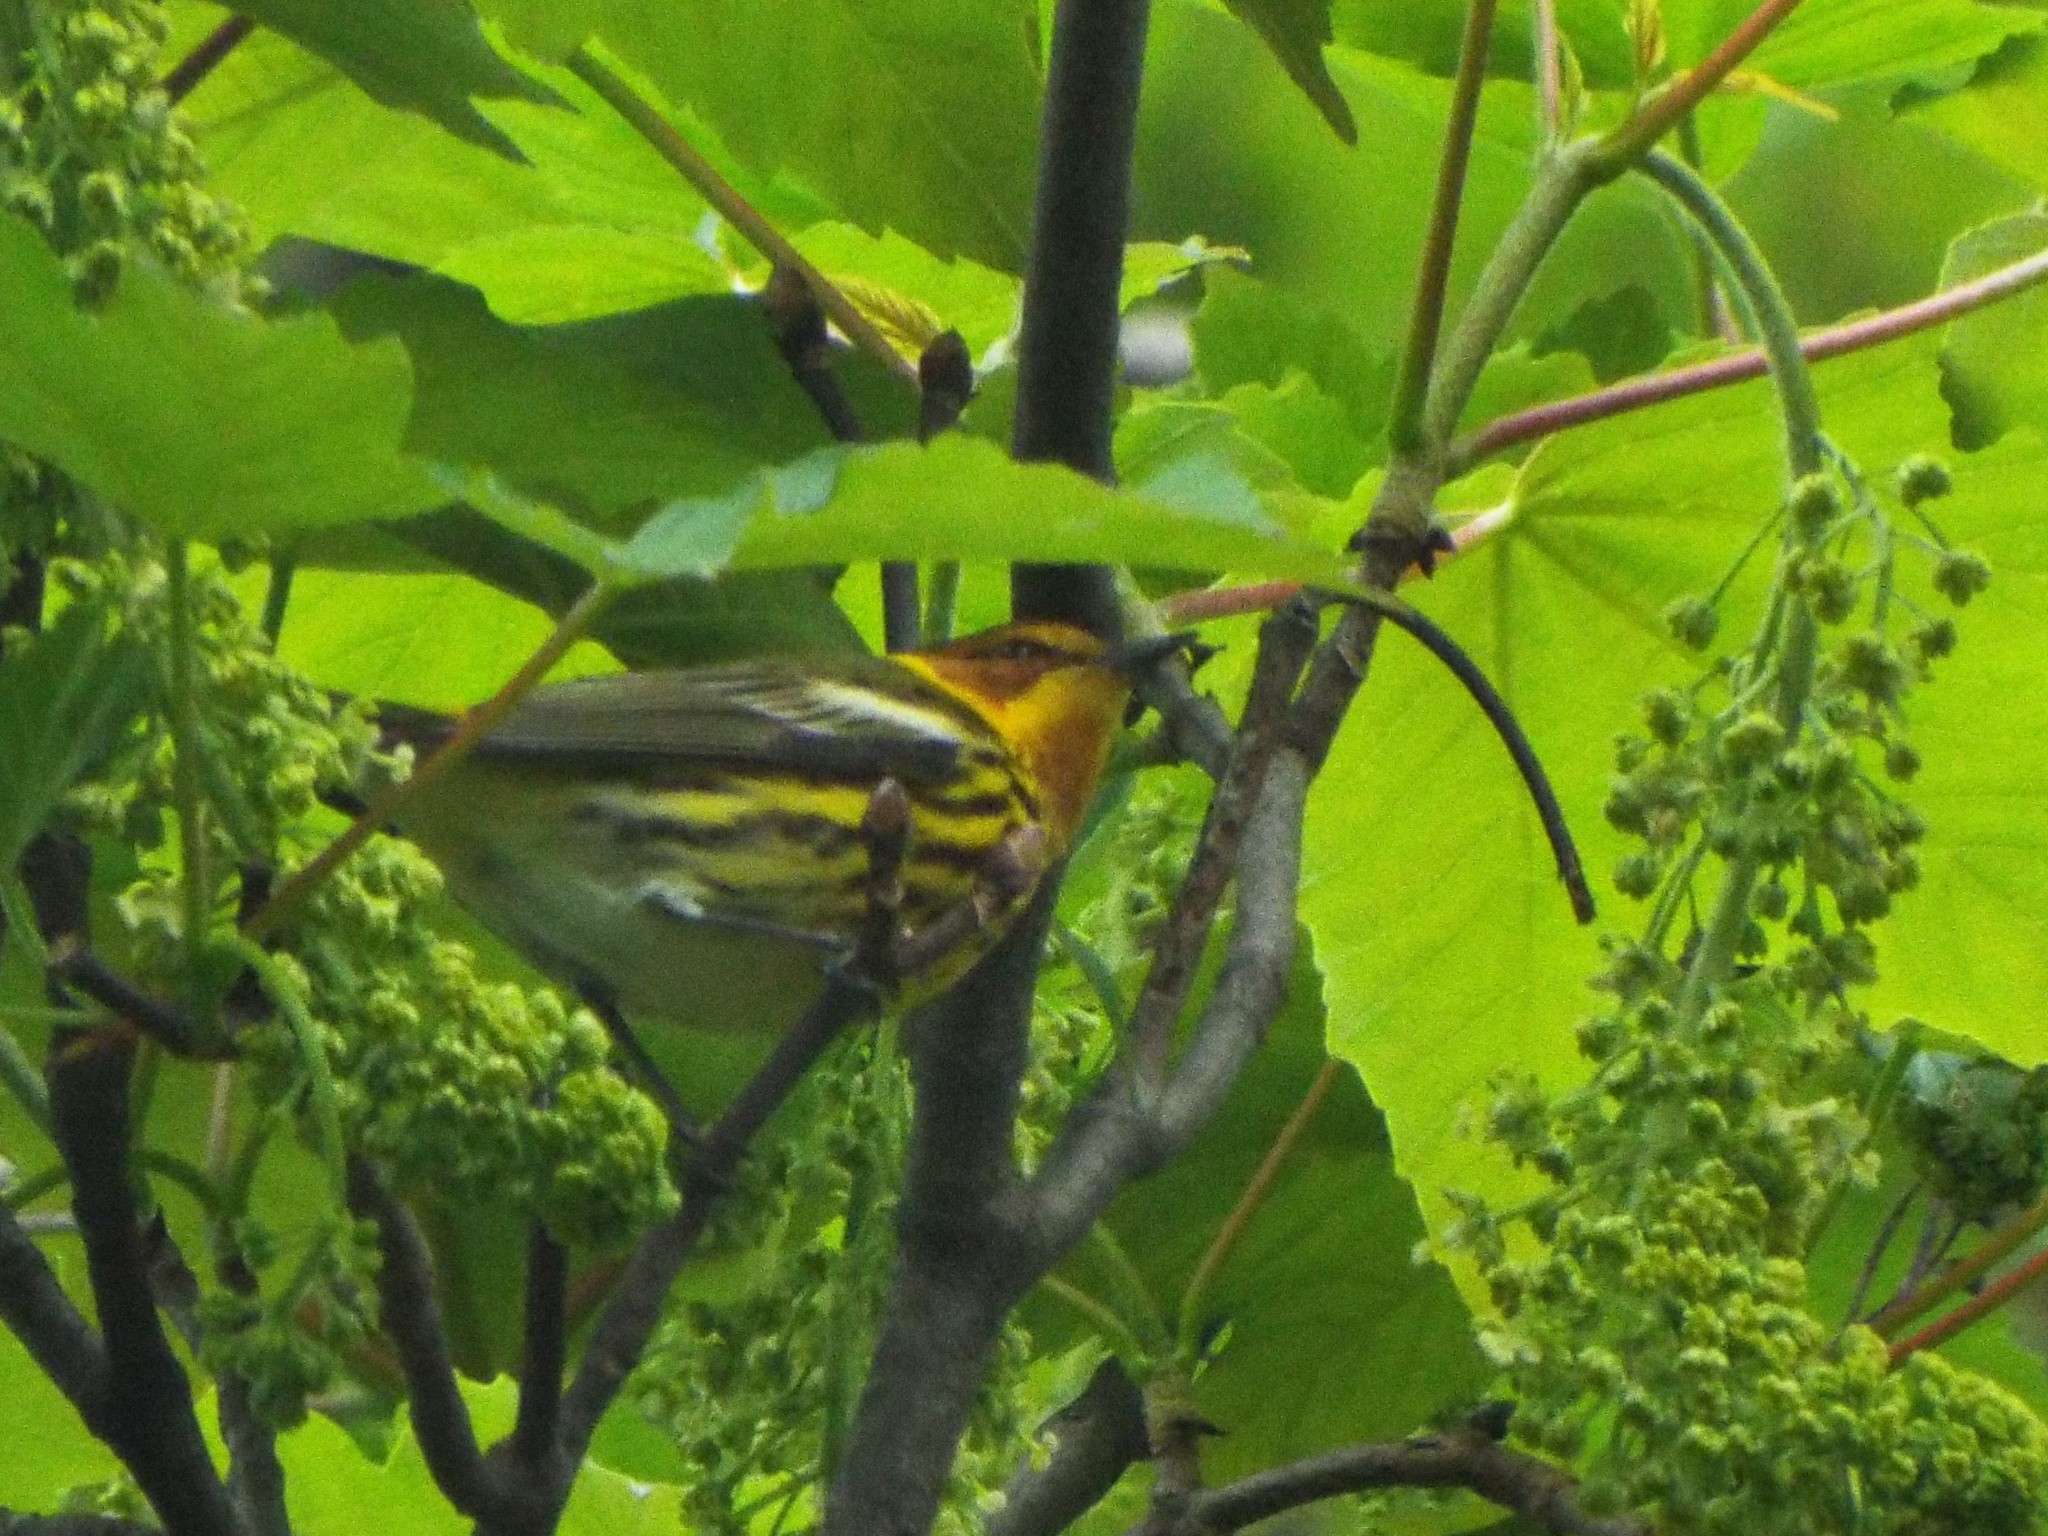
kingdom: Animalia
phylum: Chordata
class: Aves
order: Passeriformes
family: Parulidae
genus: Setophaga
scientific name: Setophaga tigrina
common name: Cape may warbler
